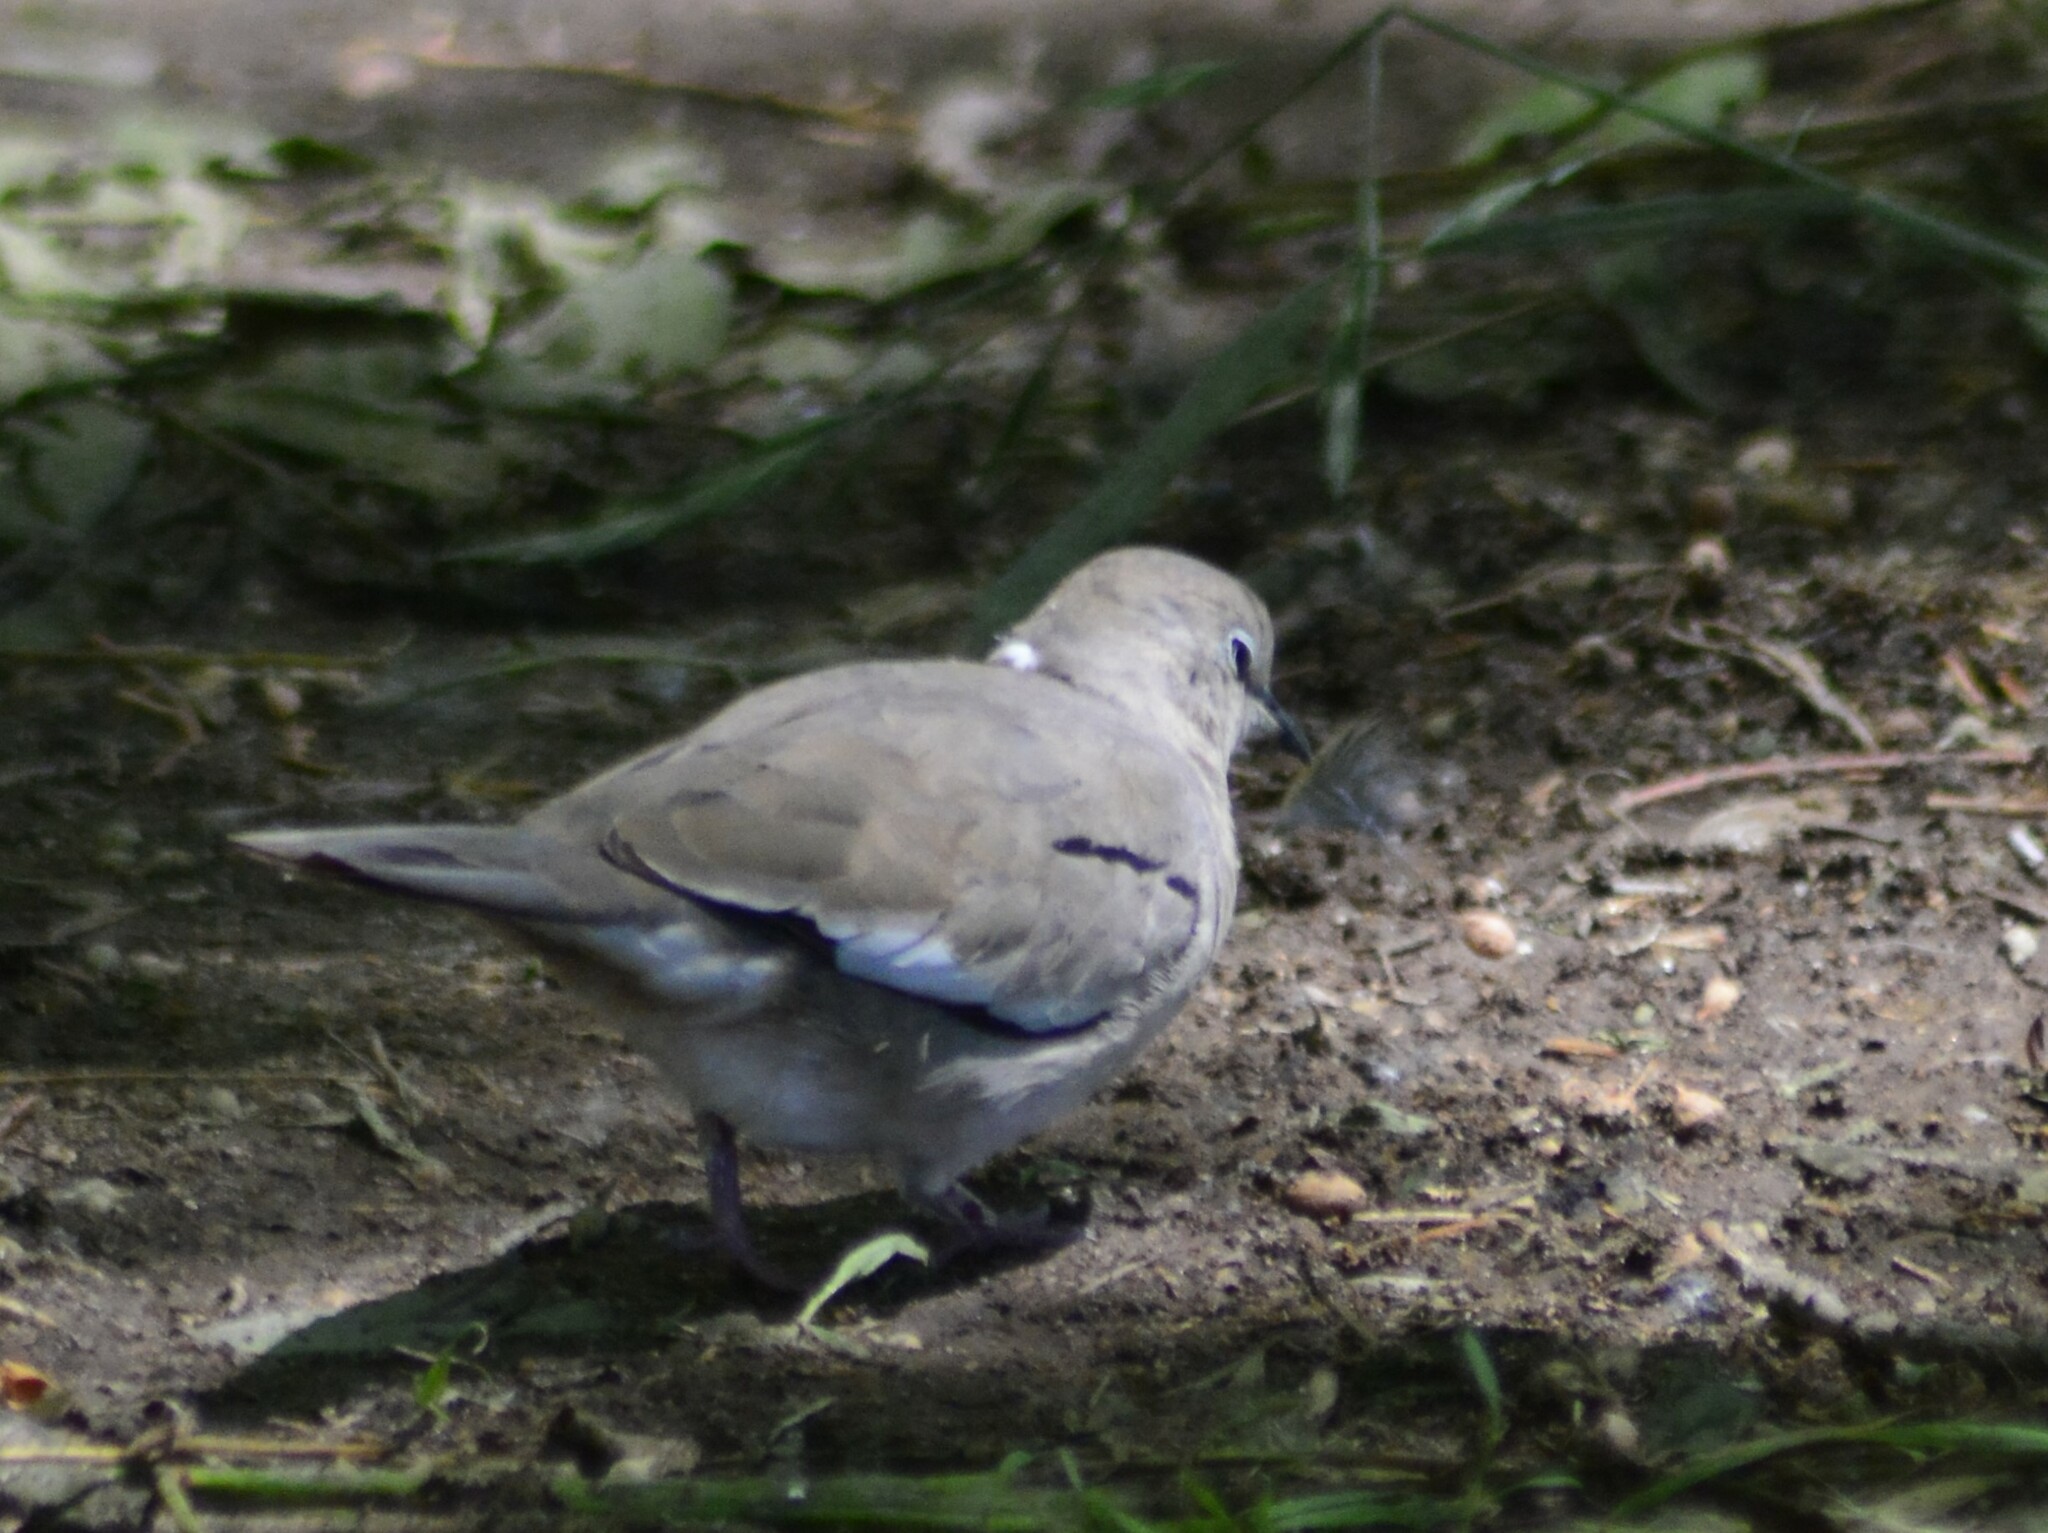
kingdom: Animalia
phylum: Chordata
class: Aves
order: Columbiformes
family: Columbidae
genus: Columbina
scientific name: Columbina picui
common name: Picui ground dove
